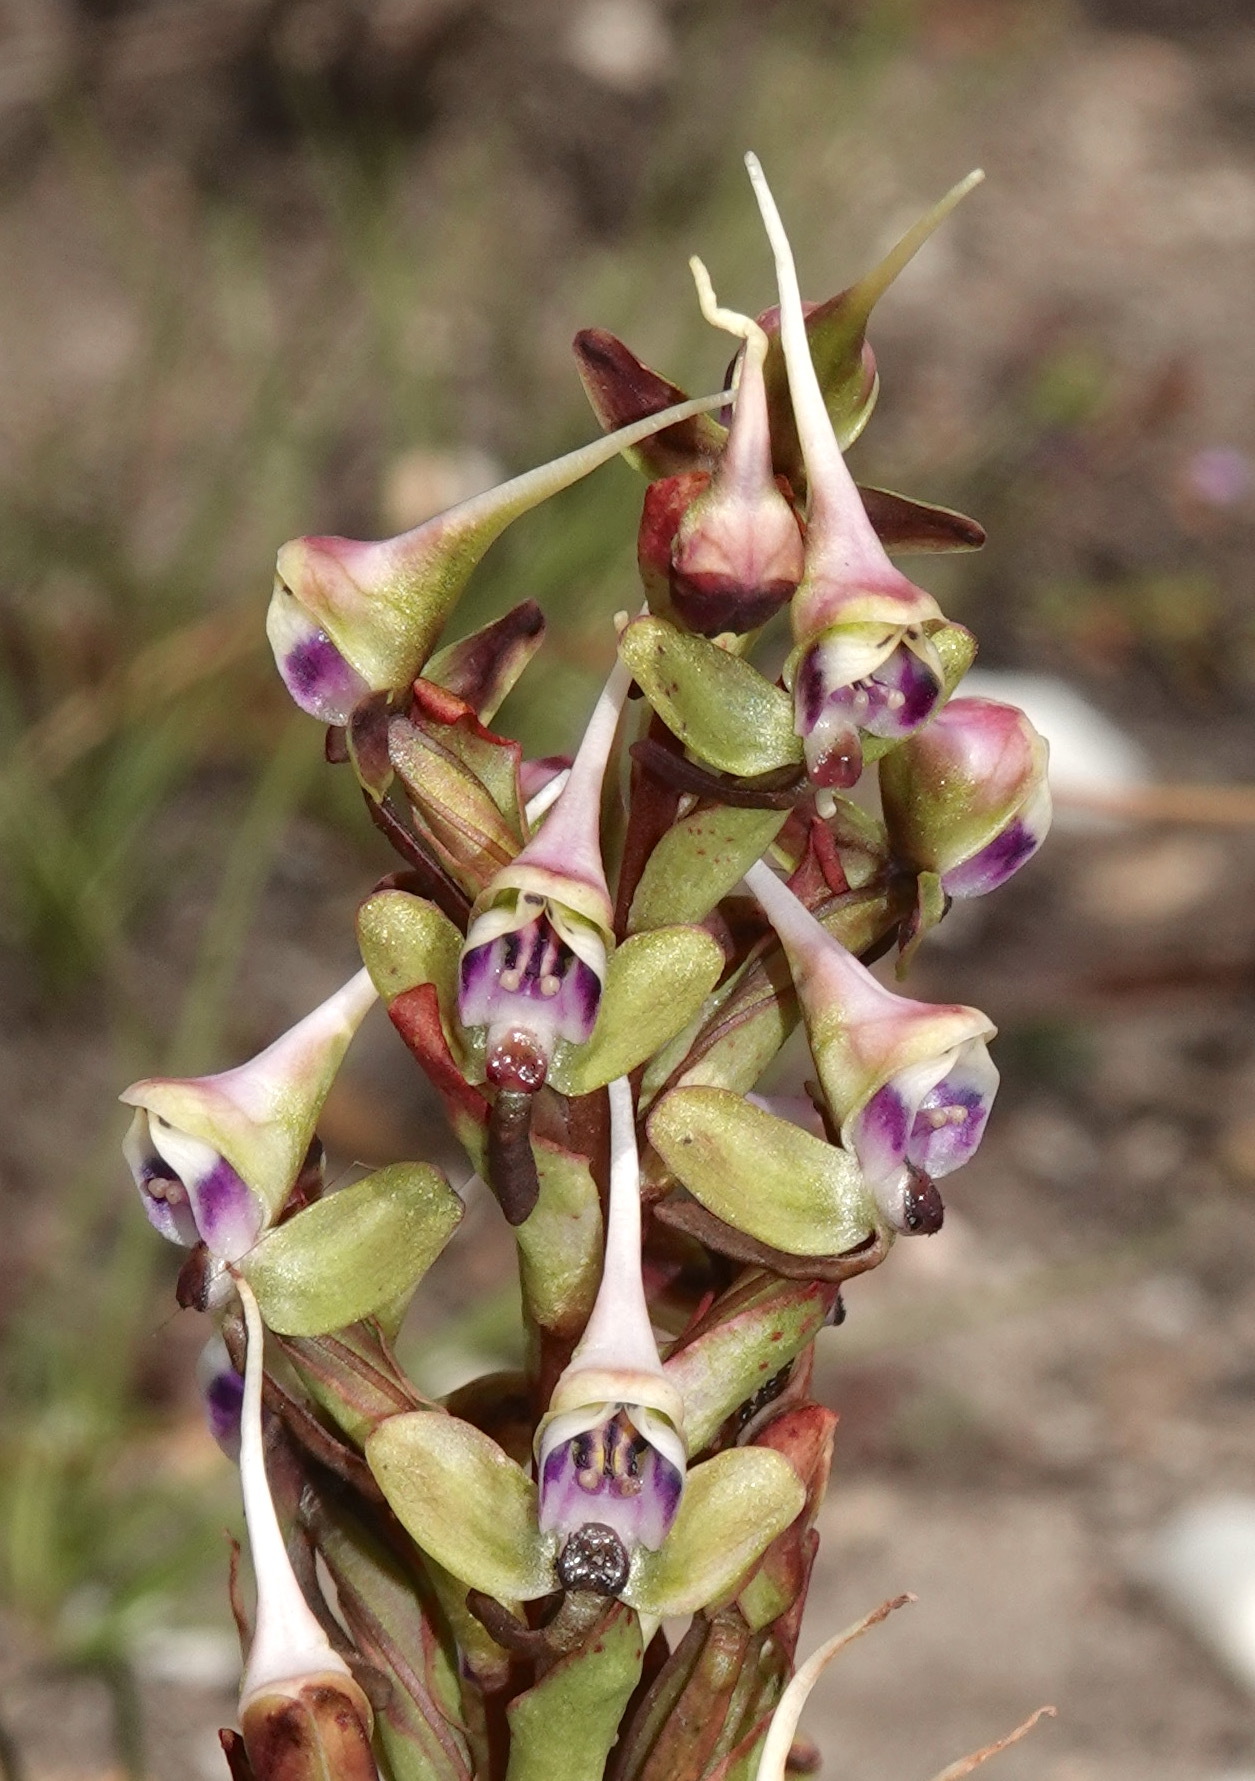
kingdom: Plantae
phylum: Tracheophyta
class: Liliopsida
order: Asparagales
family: Orchidaceae
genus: Disa
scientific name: Disa ovalifolia
